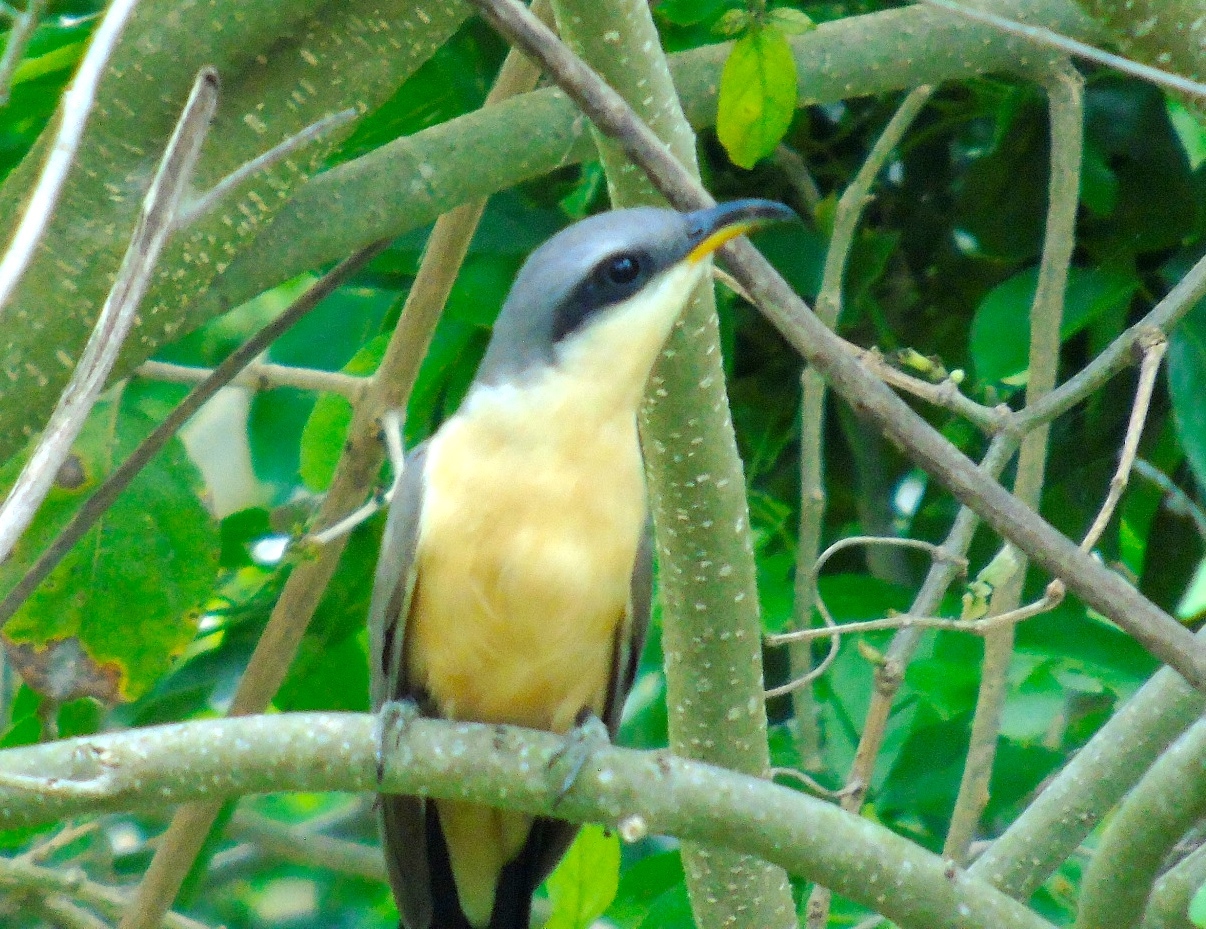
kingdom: Animalia
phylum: Chordata
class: Aves
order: Cuculiformes
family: Cuculidae
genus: Coccyzus
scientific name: Coccyzus minor
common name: Mangrove cuckoo
